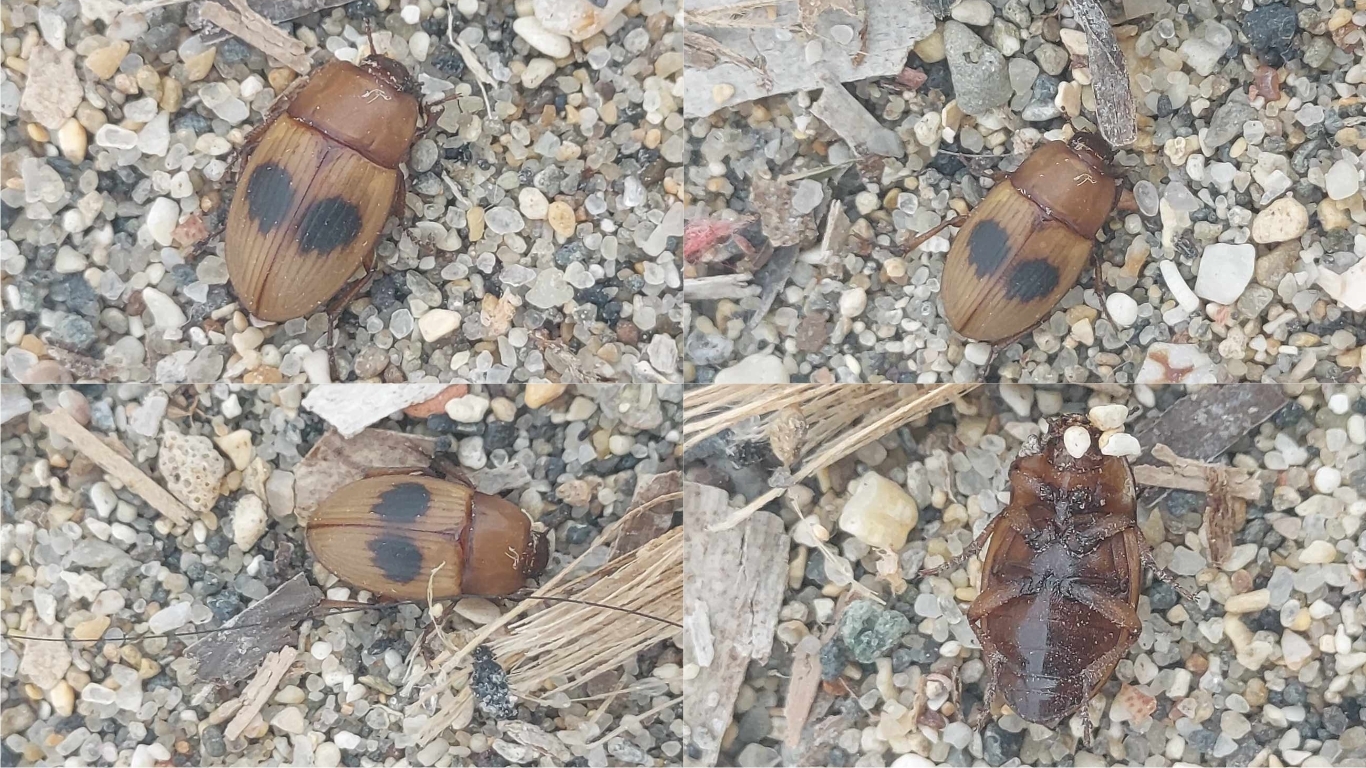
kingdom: Animalia
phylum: Arthropoda
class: Insecta
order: Coleoptera
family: Tenebrionidae
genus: Phaleria
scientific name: Phaleria bimaculata
